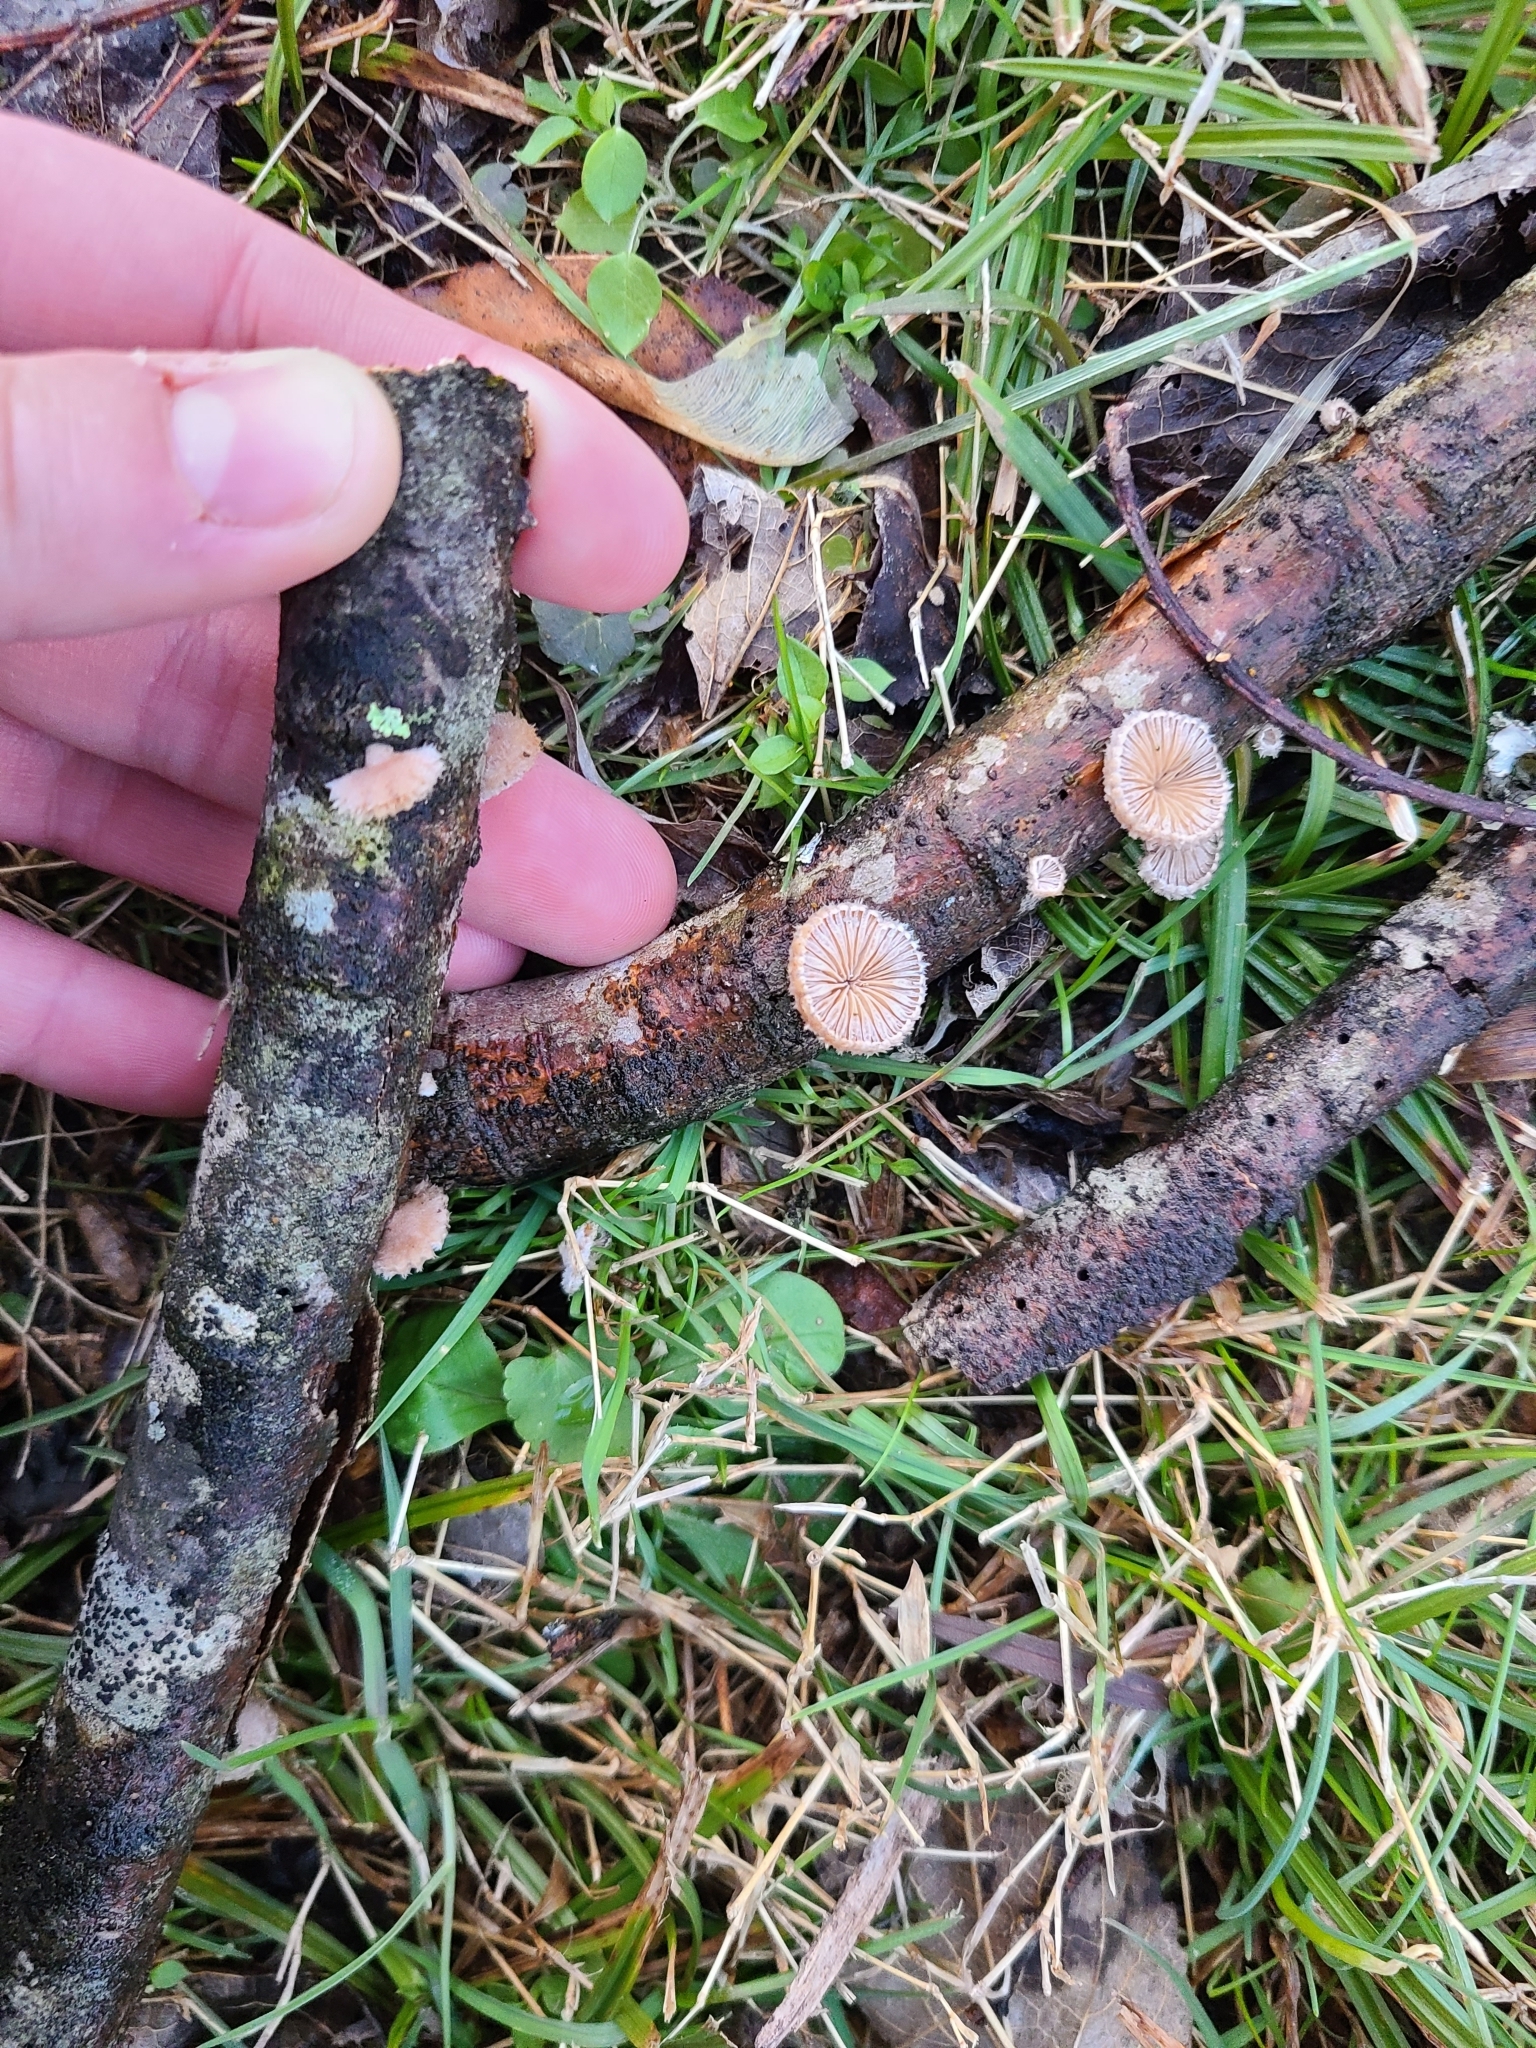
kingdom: Fungi
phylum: Basidiomycota
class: Agaricomycetes
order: Agaricales
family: Schizophyllaceae
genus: Schizophyllum
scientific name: Schizophyllum commune
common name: Common porecrust
